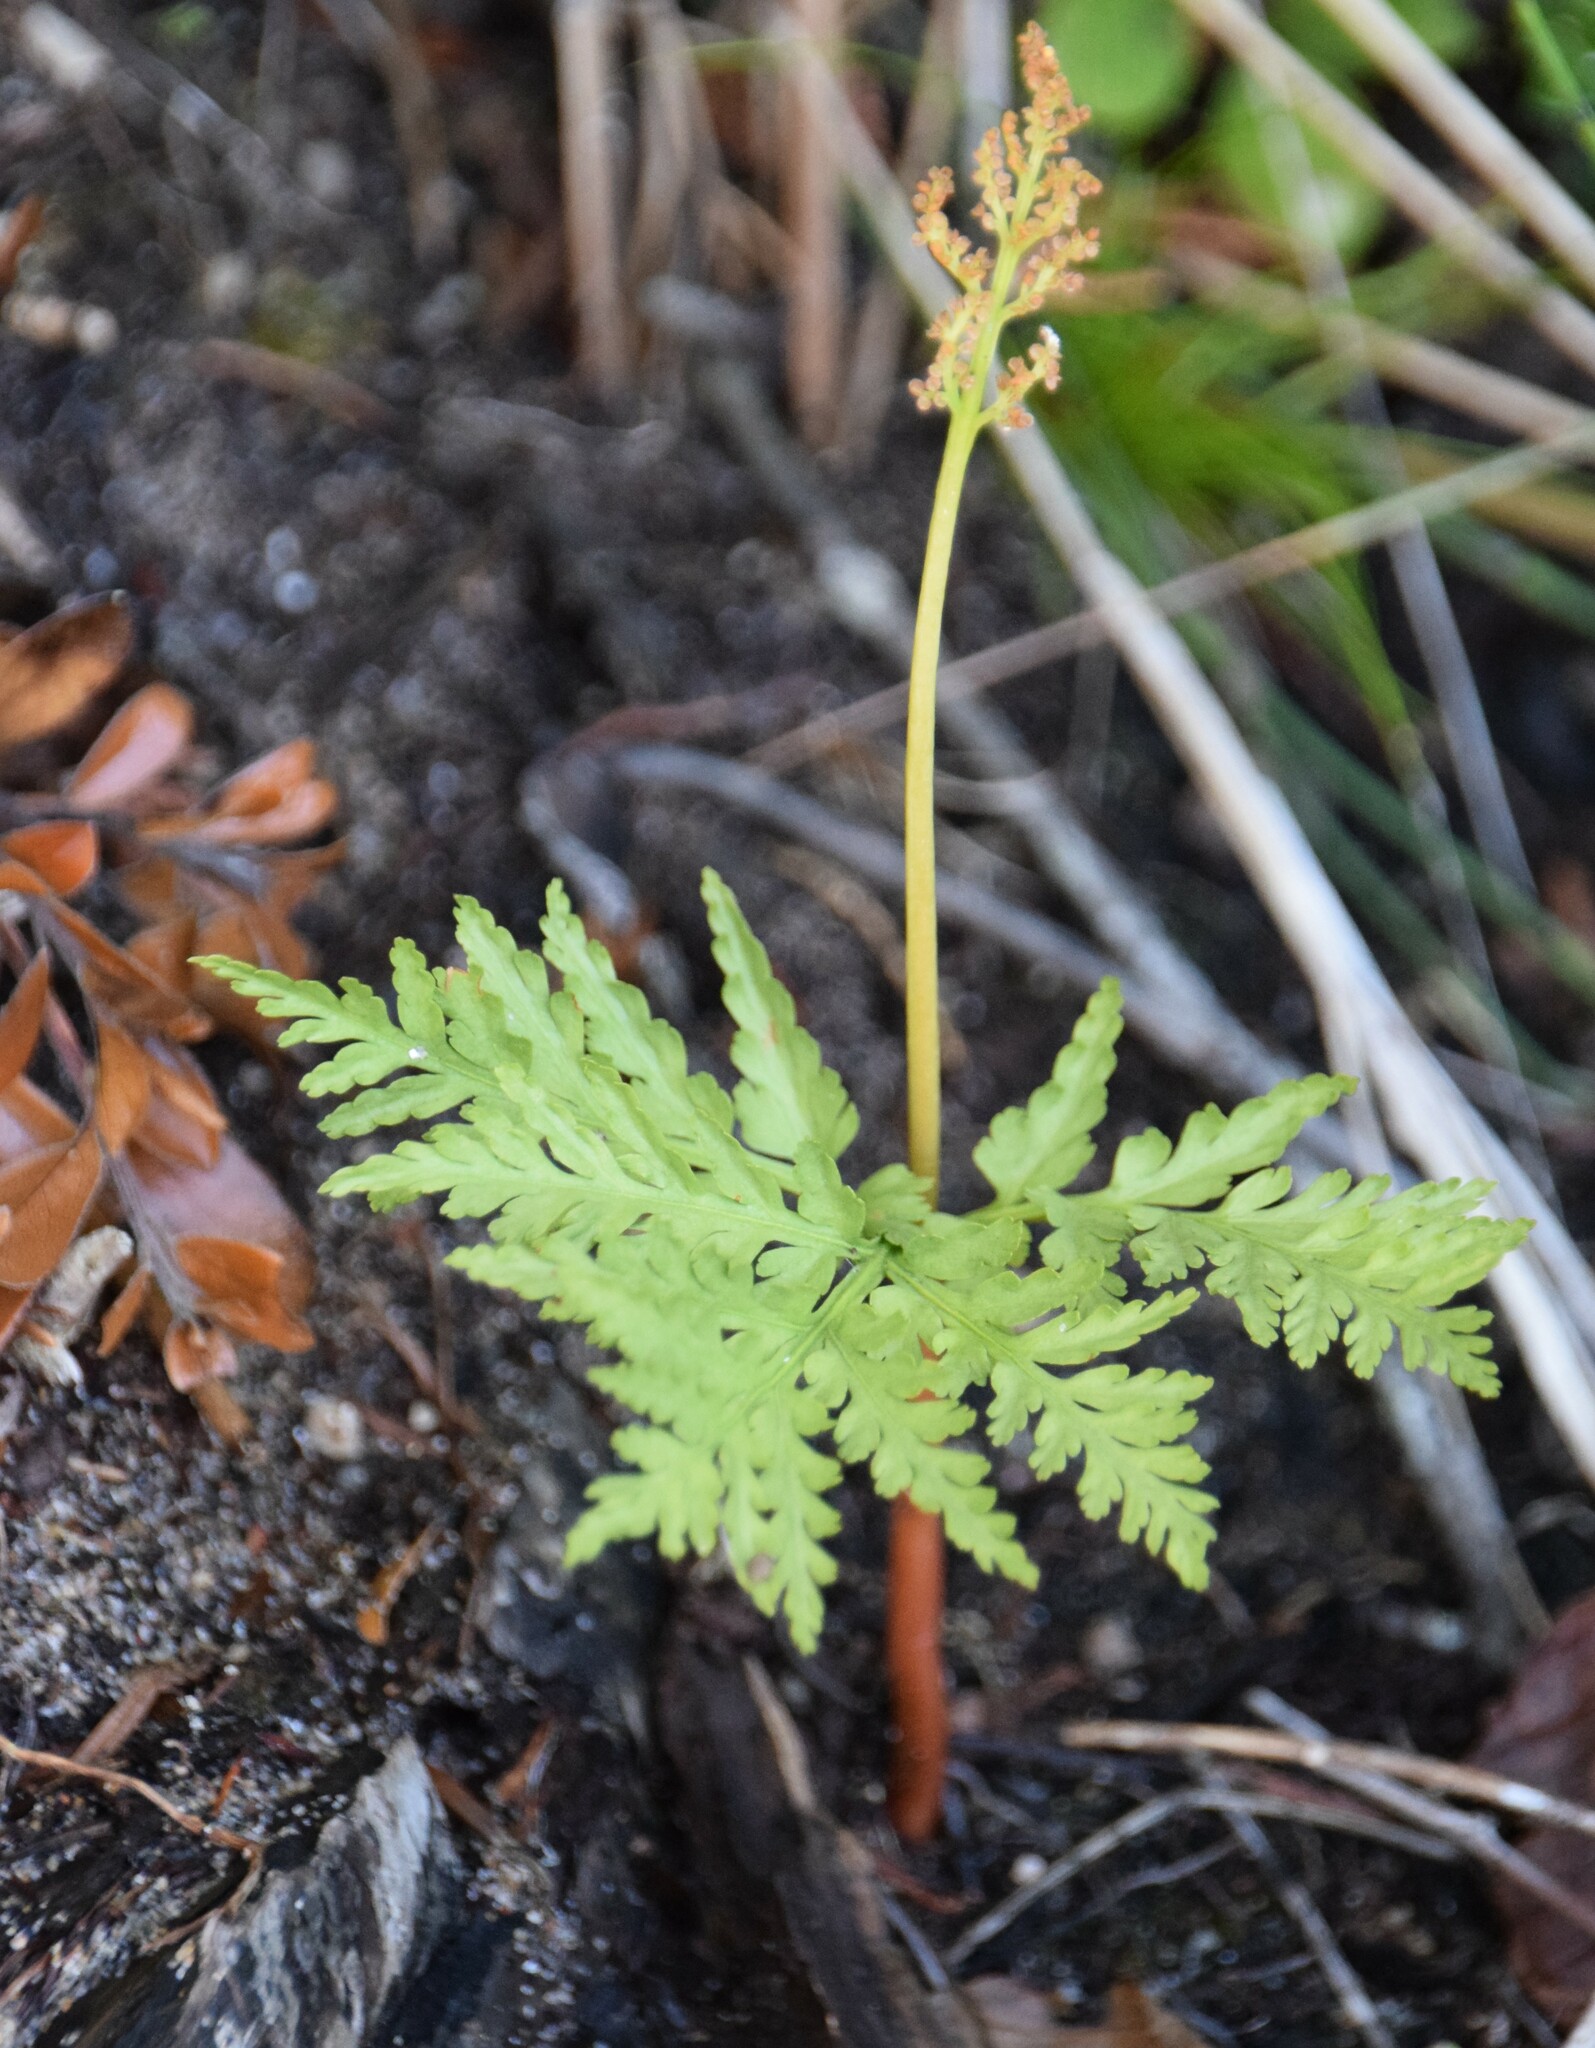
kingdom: Plantae
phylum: Tracheophyta
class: Polypodiopsida
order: Ophioglossales
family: Ophioglossaceae
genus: Botrypus
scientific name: Botrypus virginianus
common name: Common grapefern
